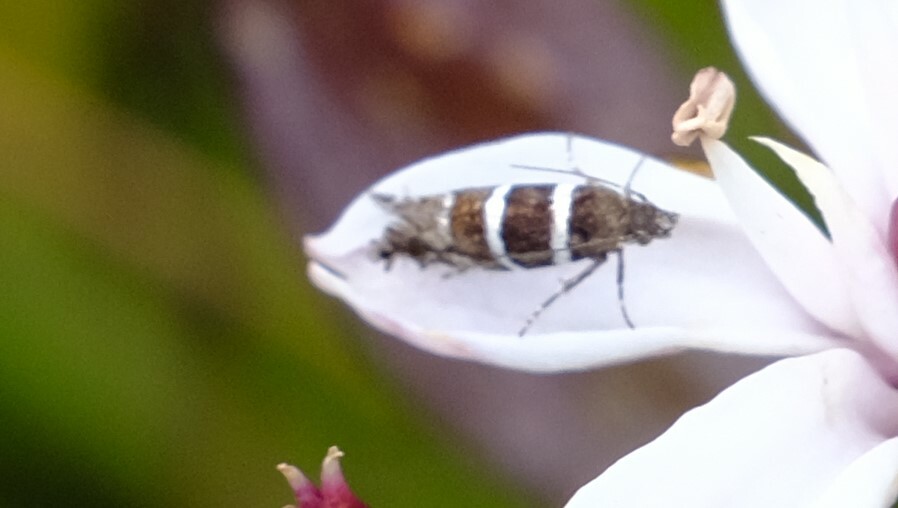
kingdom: Animalia
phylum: Arthropoda
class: Insecta
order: Lepidoptera
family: Glyphipterigidae
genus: Glyphipterix
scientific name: Glyphipterix platydisema
